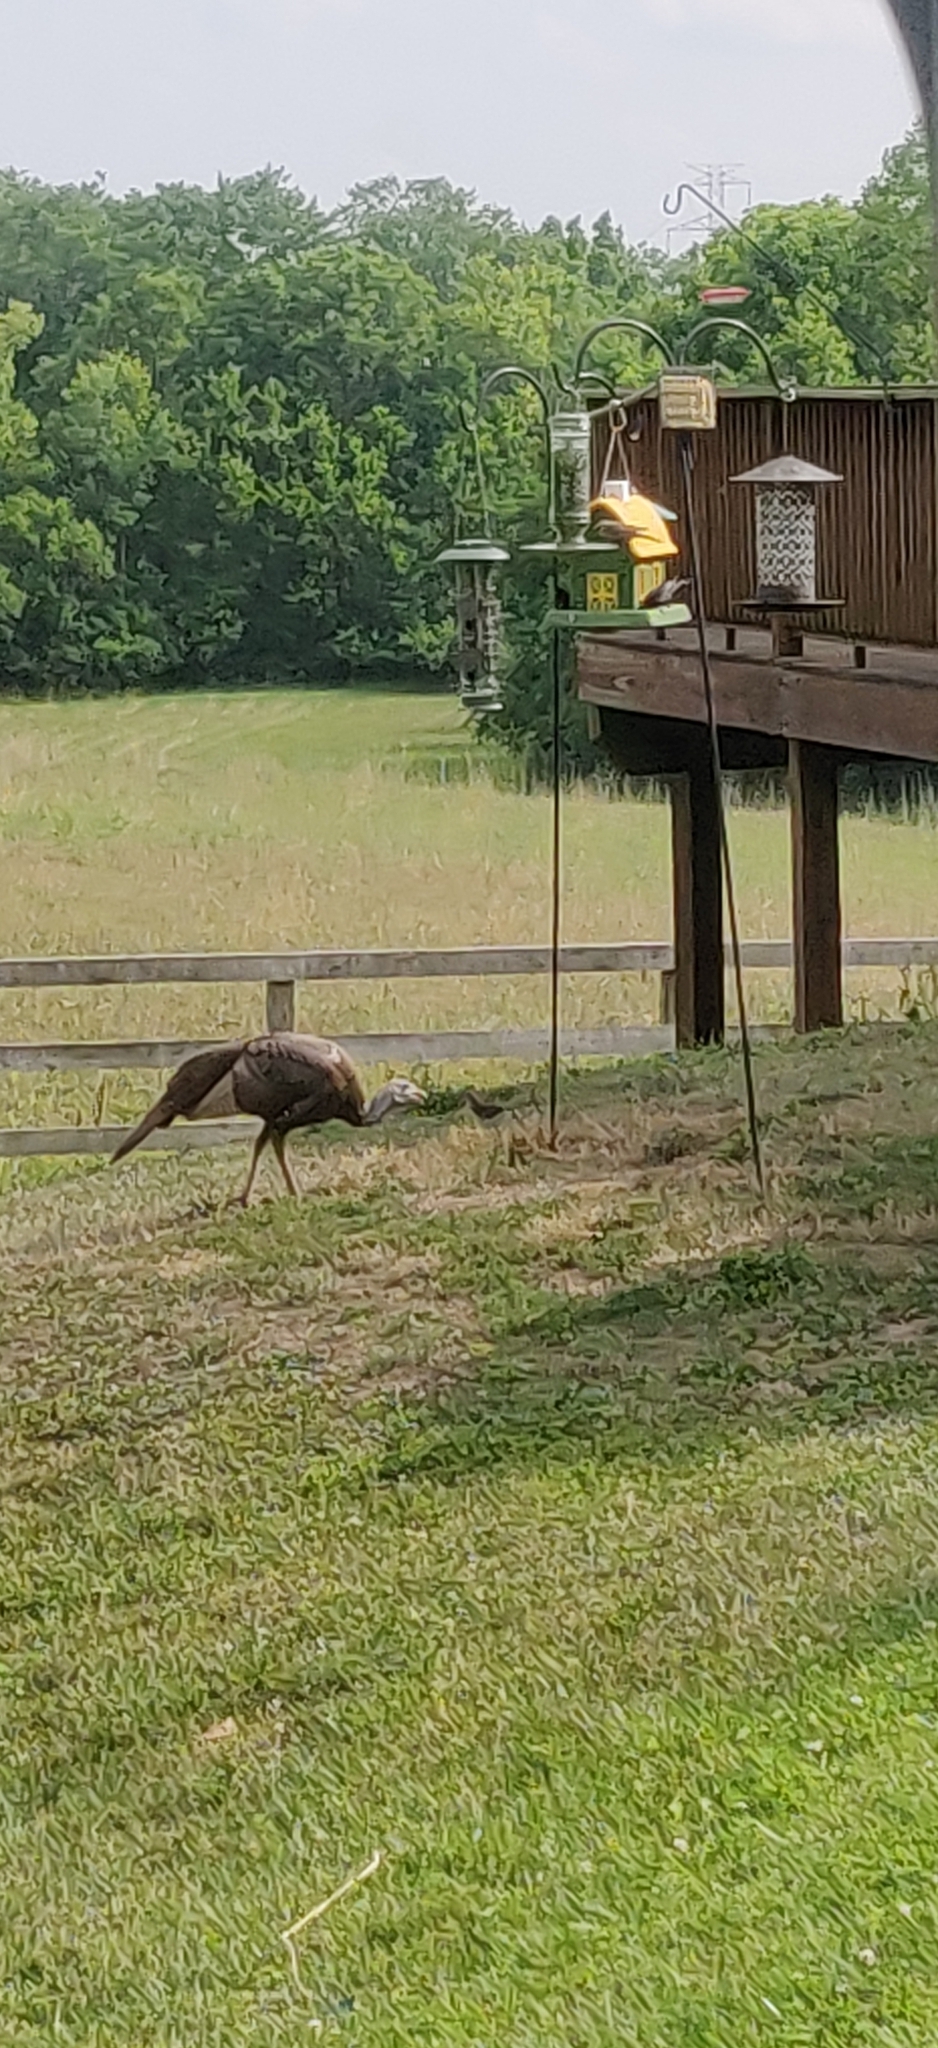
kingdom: Animalia
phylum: Chordata
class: Aves
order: Galliformes
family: Phasianidae
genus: Meleagris
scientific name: Meleagris gallopavo
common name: Wild turkey
